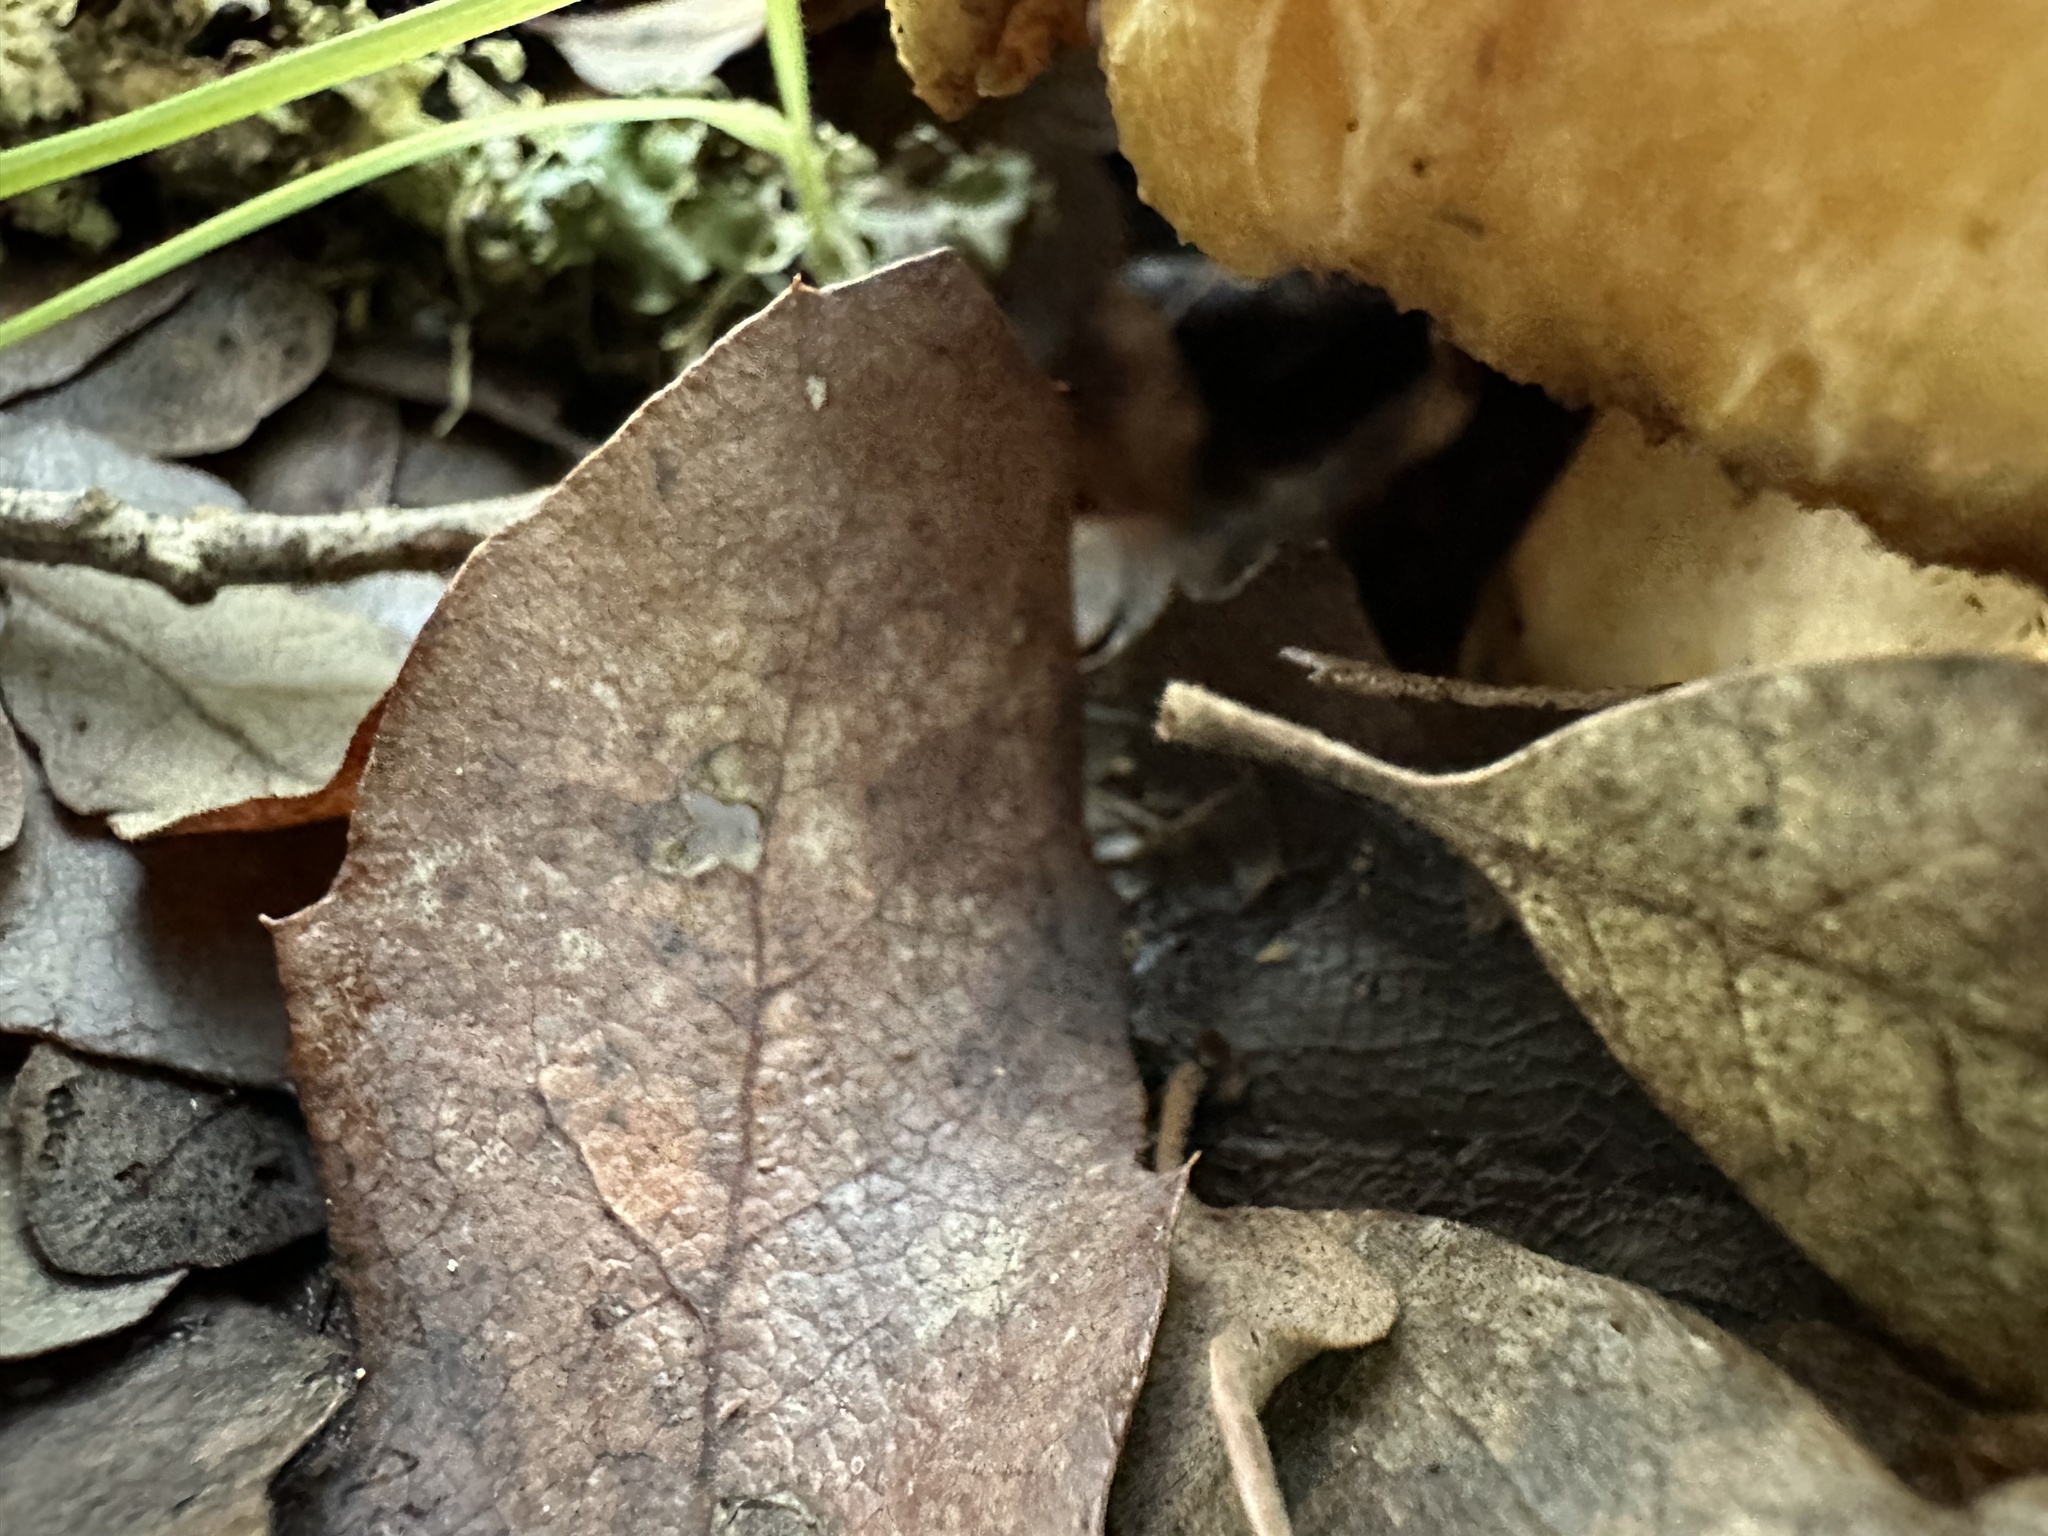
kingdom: Fungi
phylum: Basidiomycota
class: Agaricomycetes
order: Russulales
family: Russulaceae
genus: Lactarius
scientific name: Lactarius alnicola
